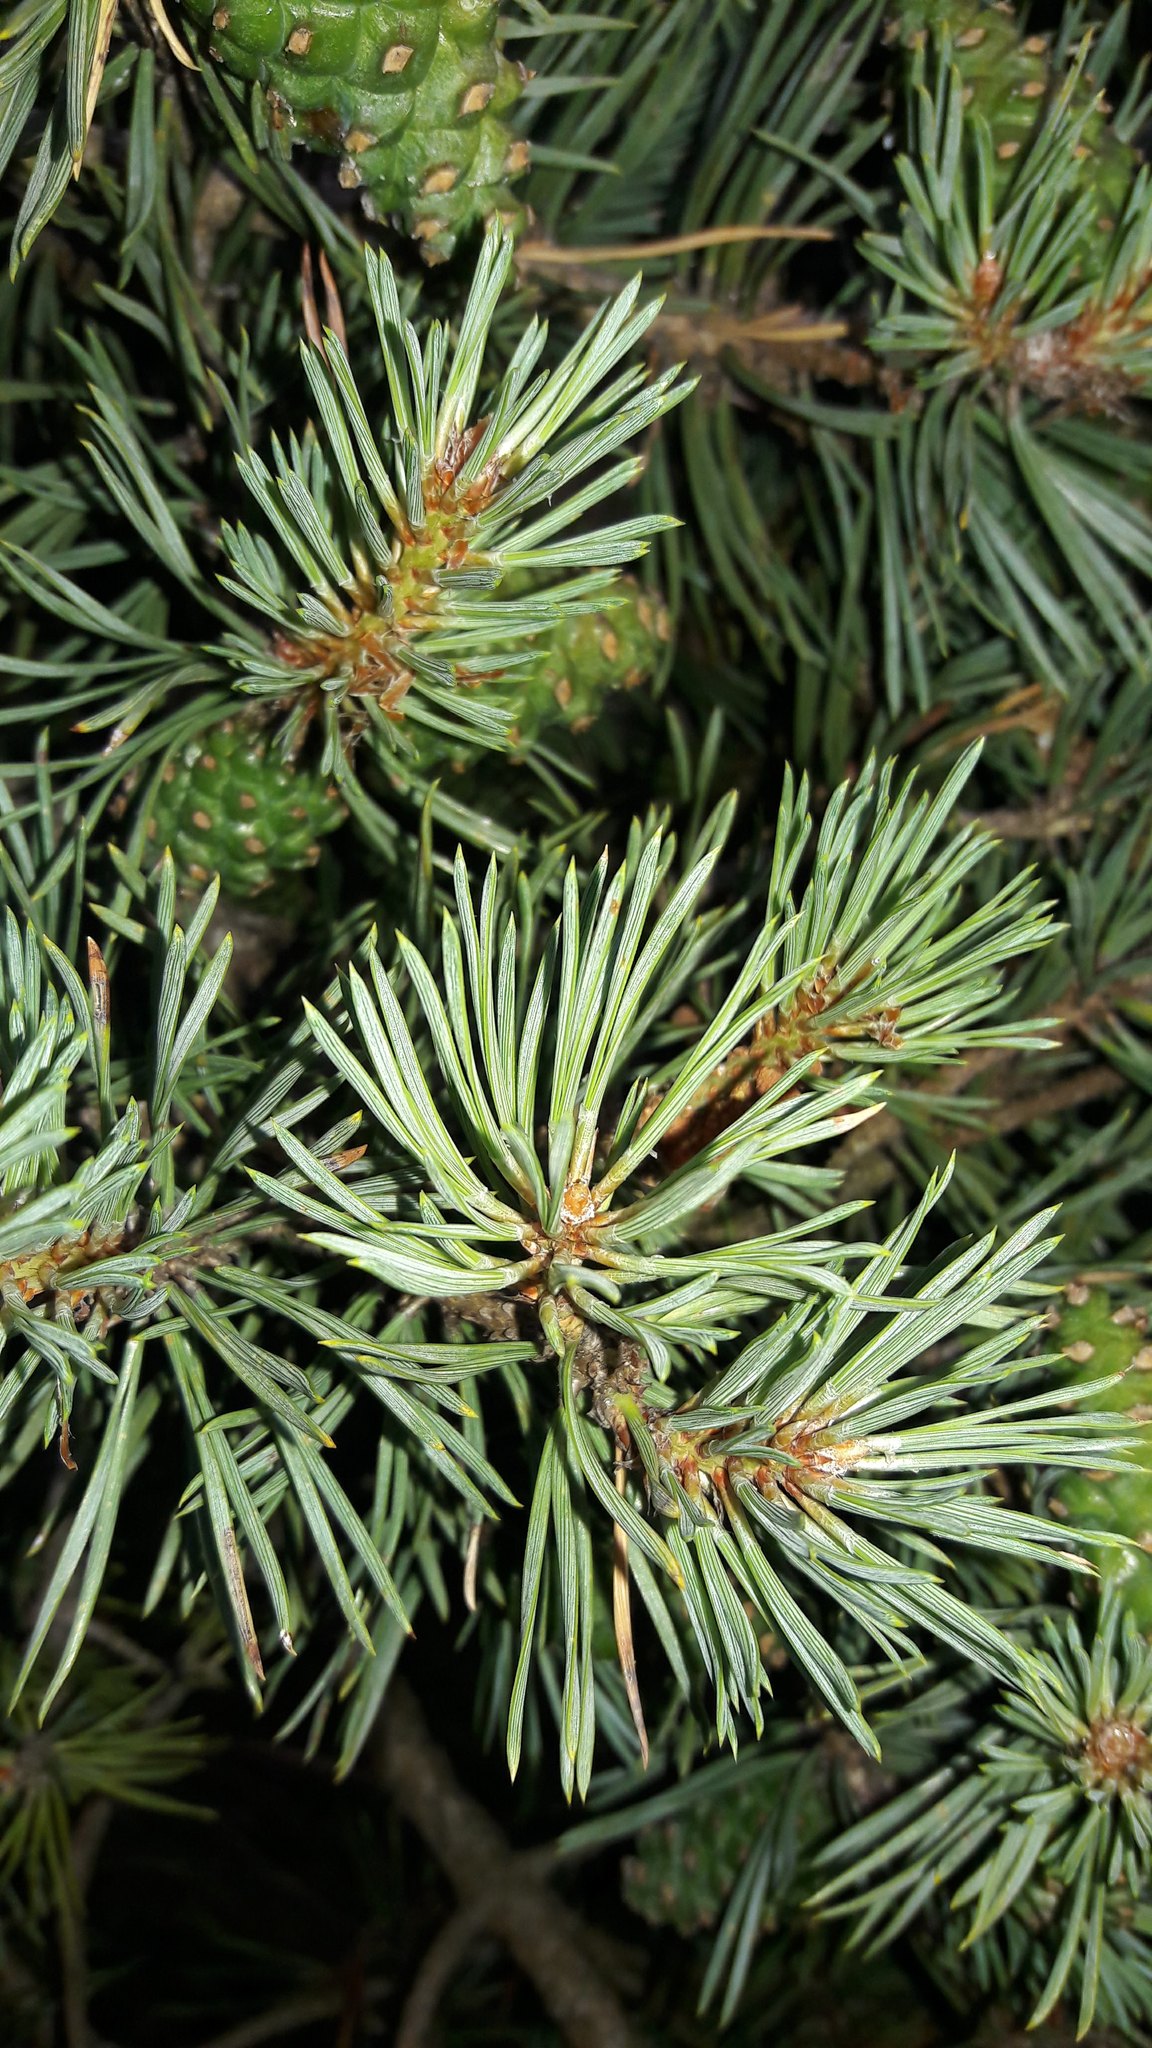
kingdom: Plantae
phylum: Tracheophyta
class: Pinopsida
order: Pinales
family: Pinaceae
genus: Pinus
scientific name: Pinus sylvestris
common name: Scots pine
